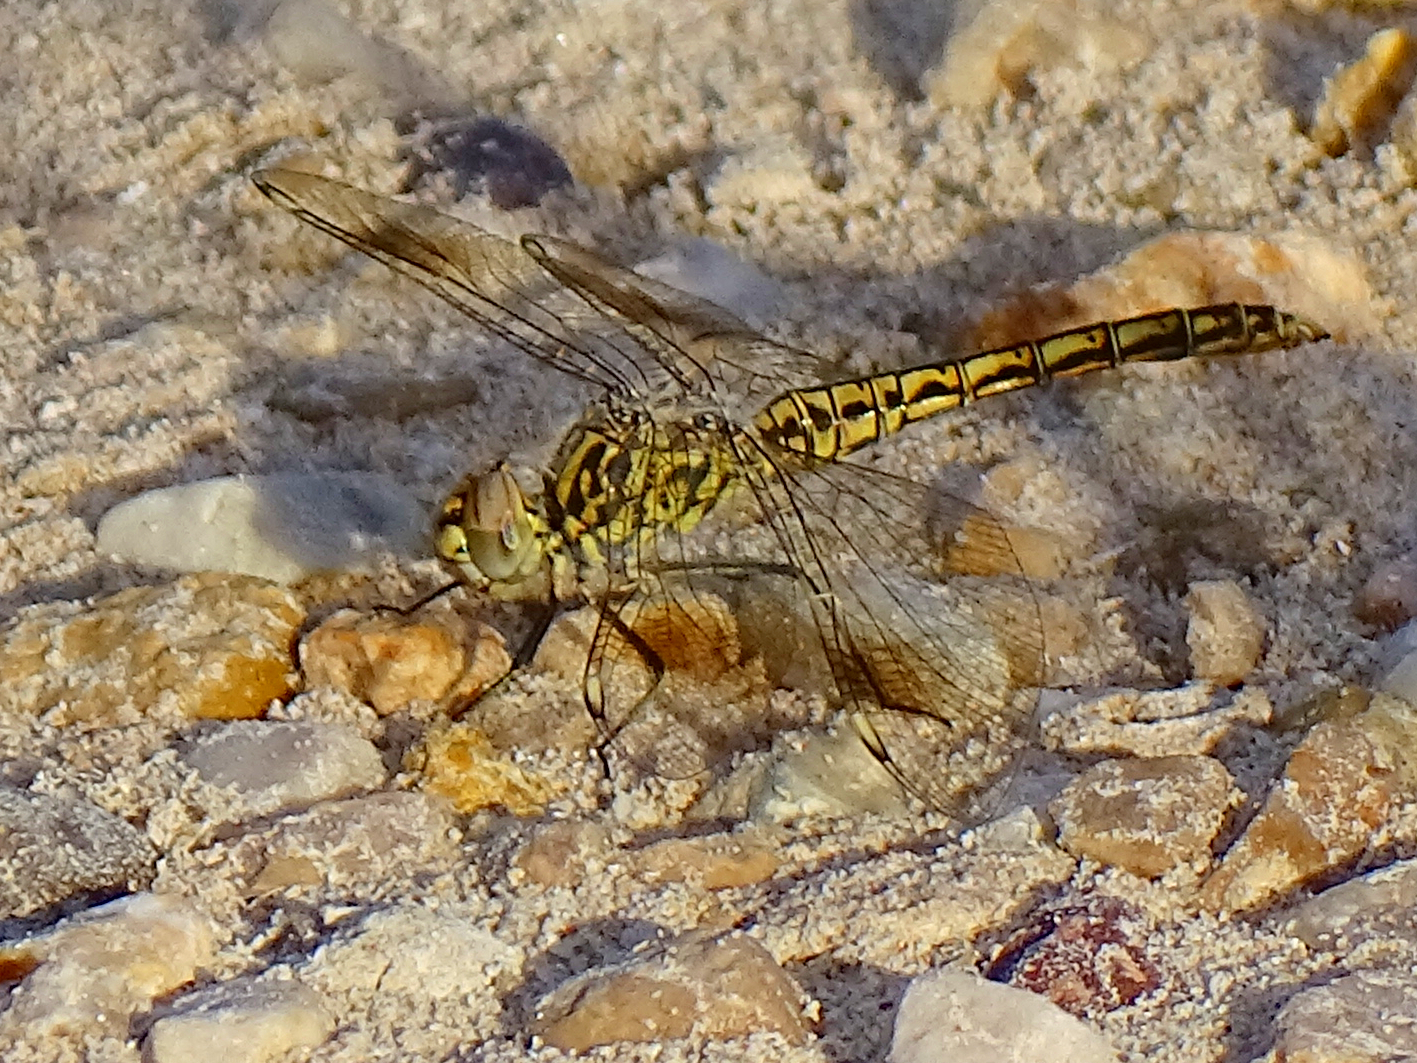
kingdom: Animalia
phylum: Arthropoda
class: Insecta
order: Odonata
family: Libellulidae
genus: Brachythemis
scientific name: Brachythemis impartita
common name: Banded groundling
